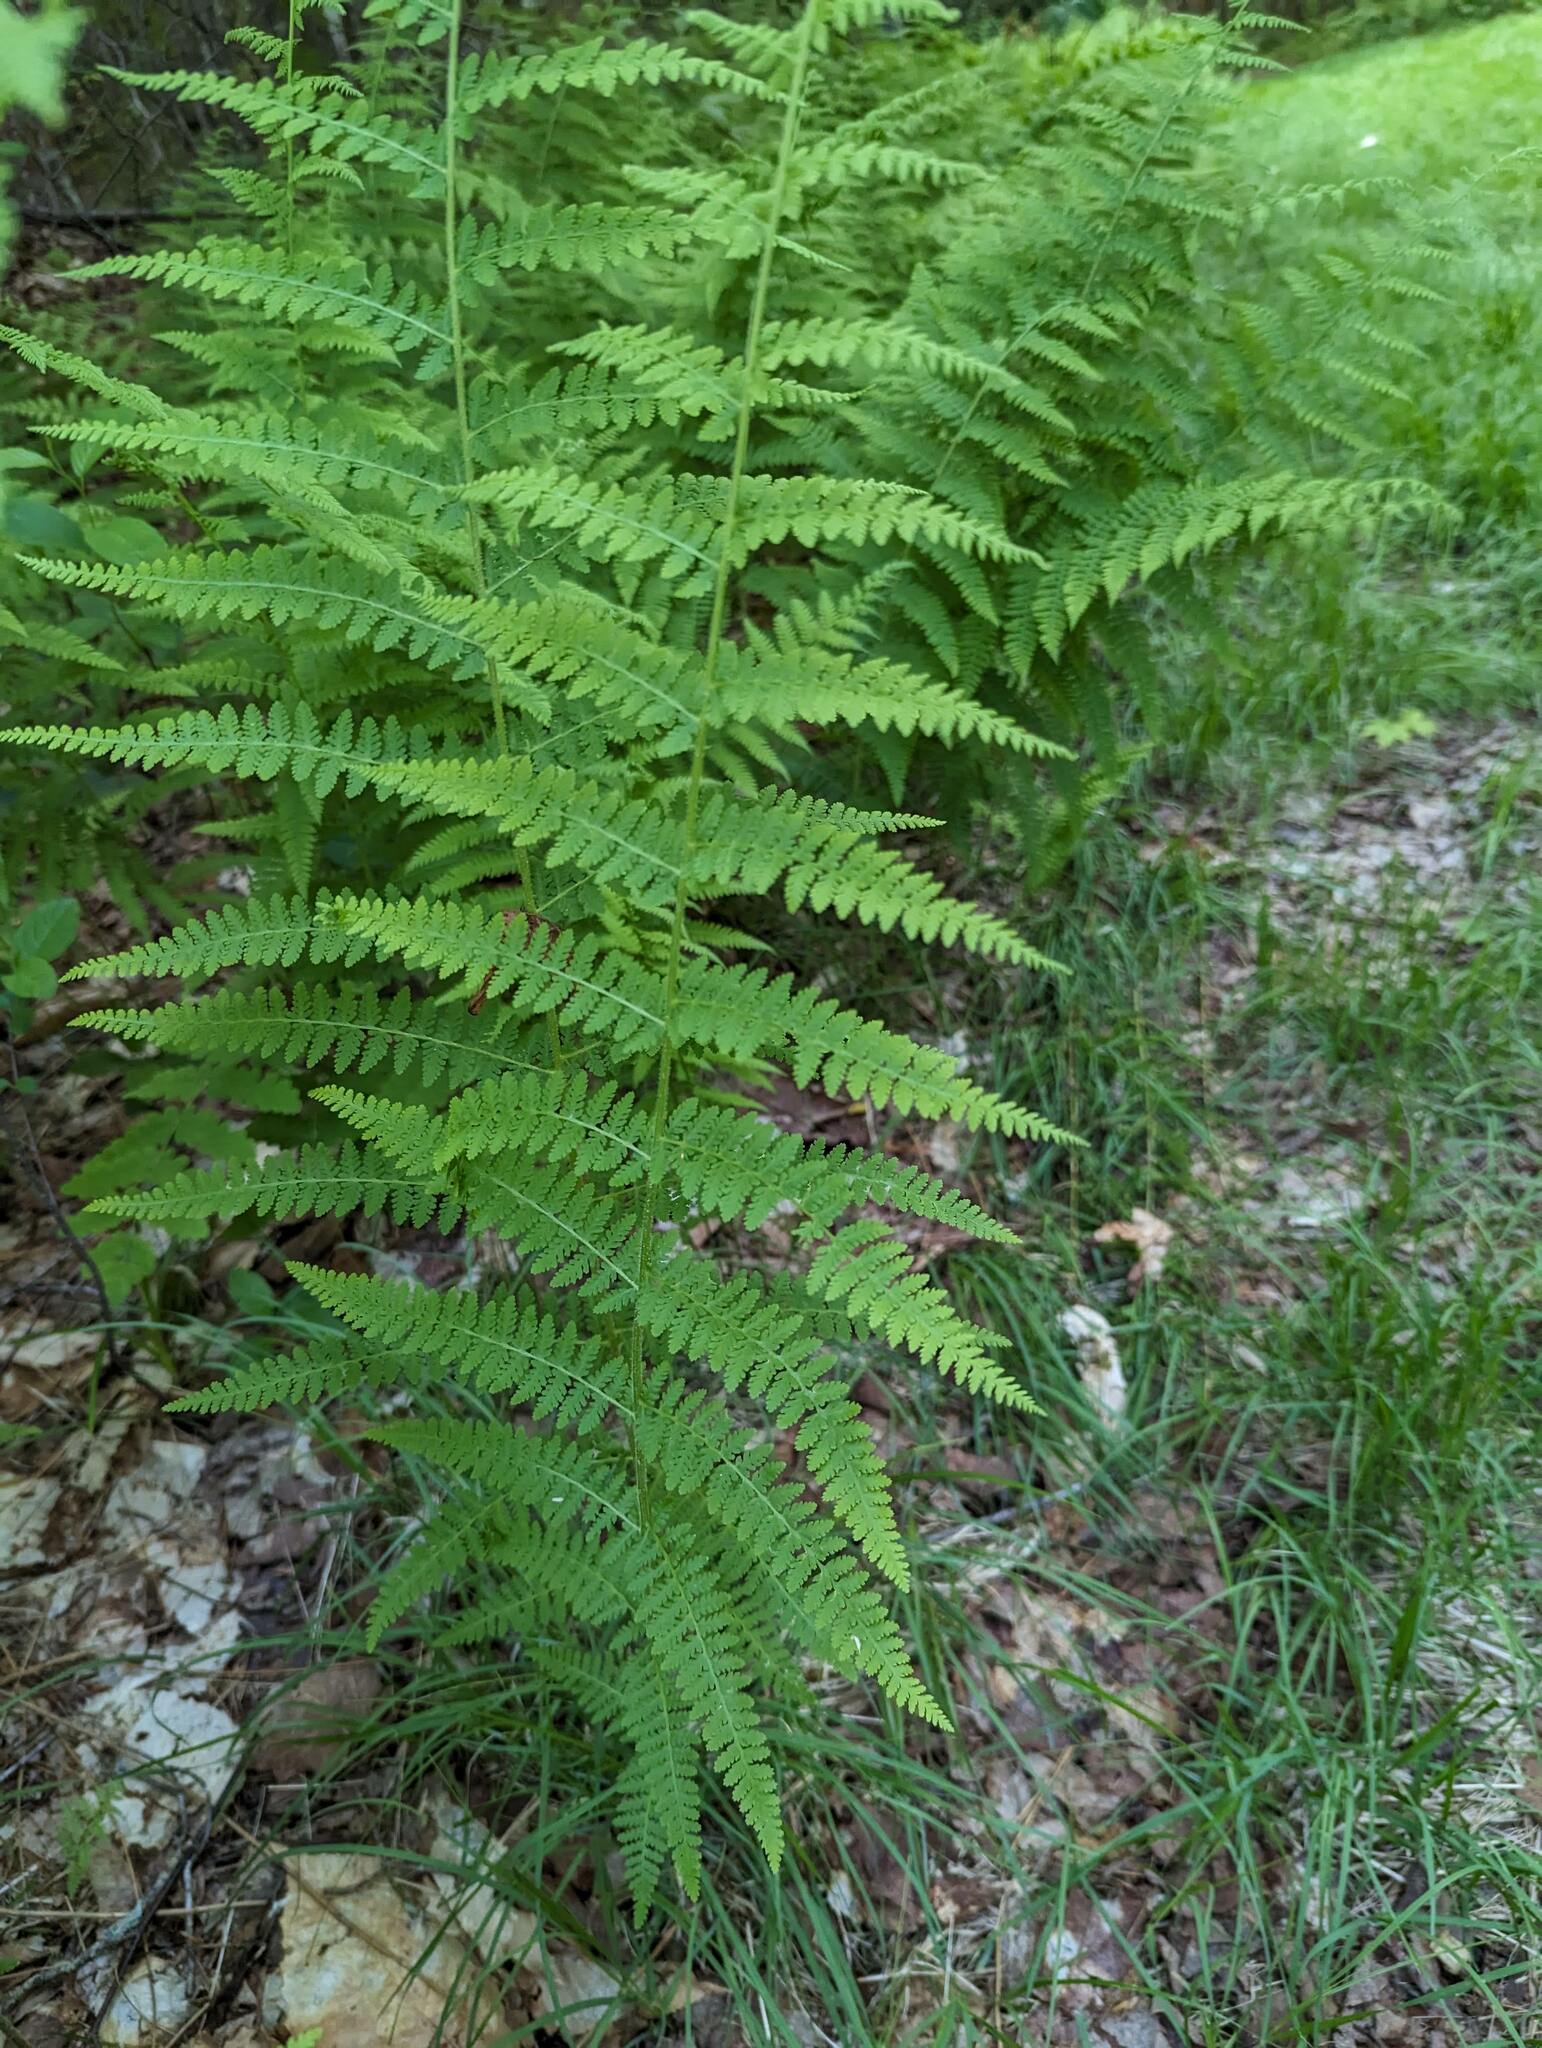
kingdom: Plantae
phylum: Tracheophyta
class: Polypodiopsida
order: Polypodiales
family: Dennstaedtiaceae
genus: Sitobolium
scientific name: Sitobolium punctilobum
